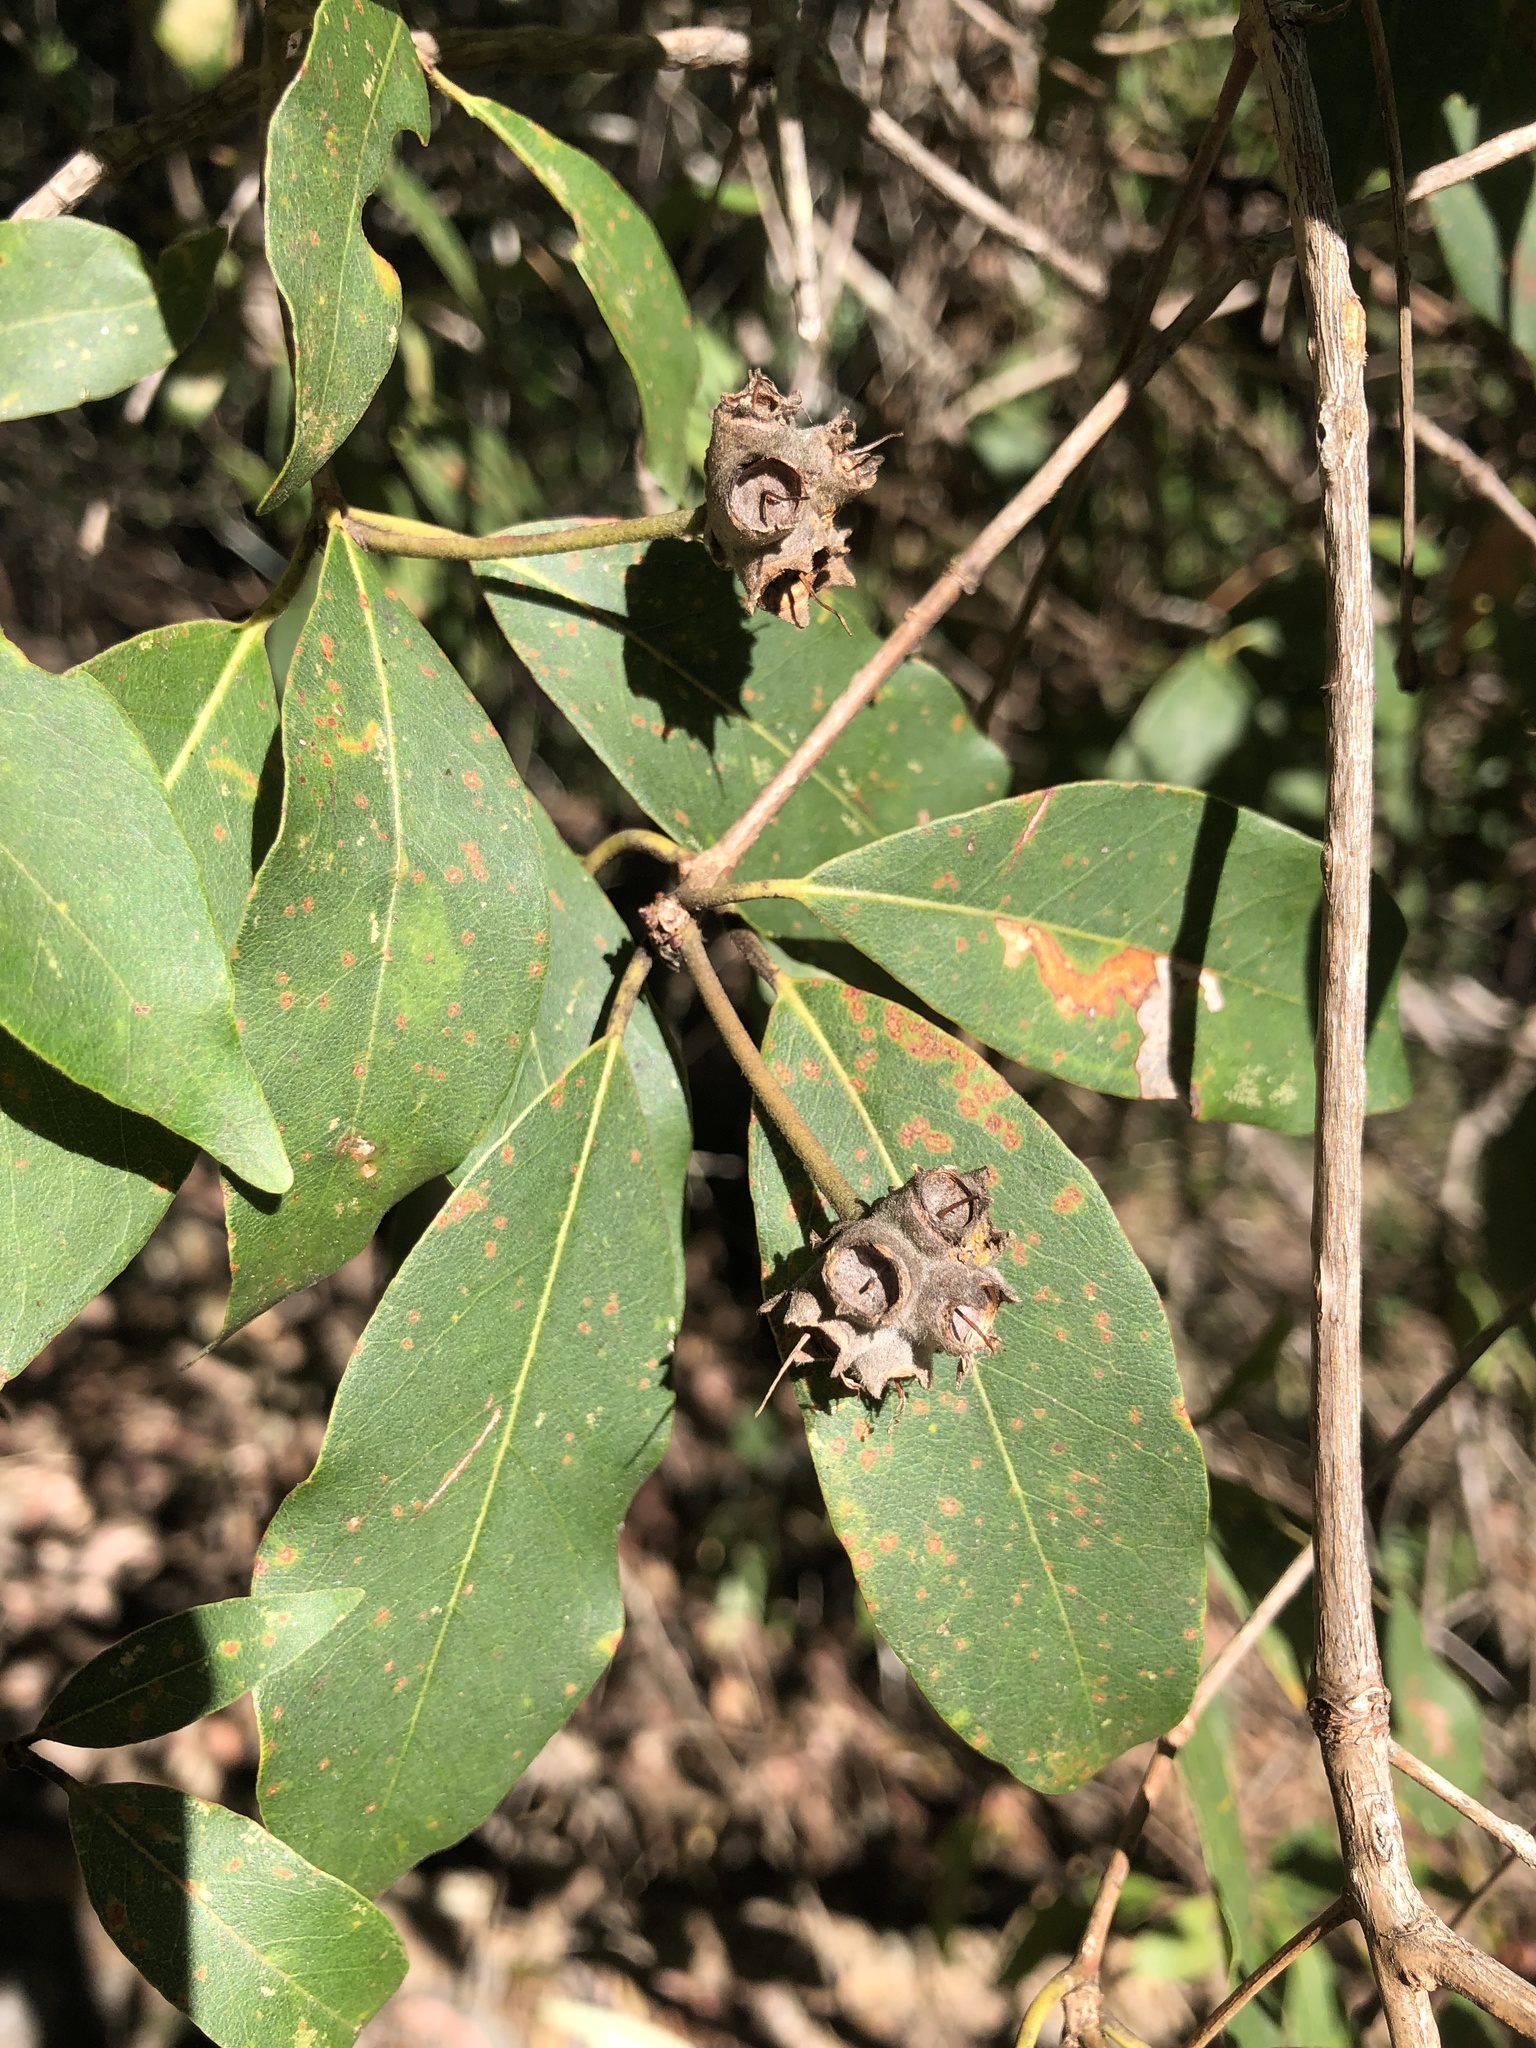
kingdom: Plantae
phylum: Tracheophyta
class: Magnoliopsida
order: Myrtales
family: Myrtaceae
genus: Syncarpia
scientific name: Syncarpia glomulifera
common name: Turpentine tree
